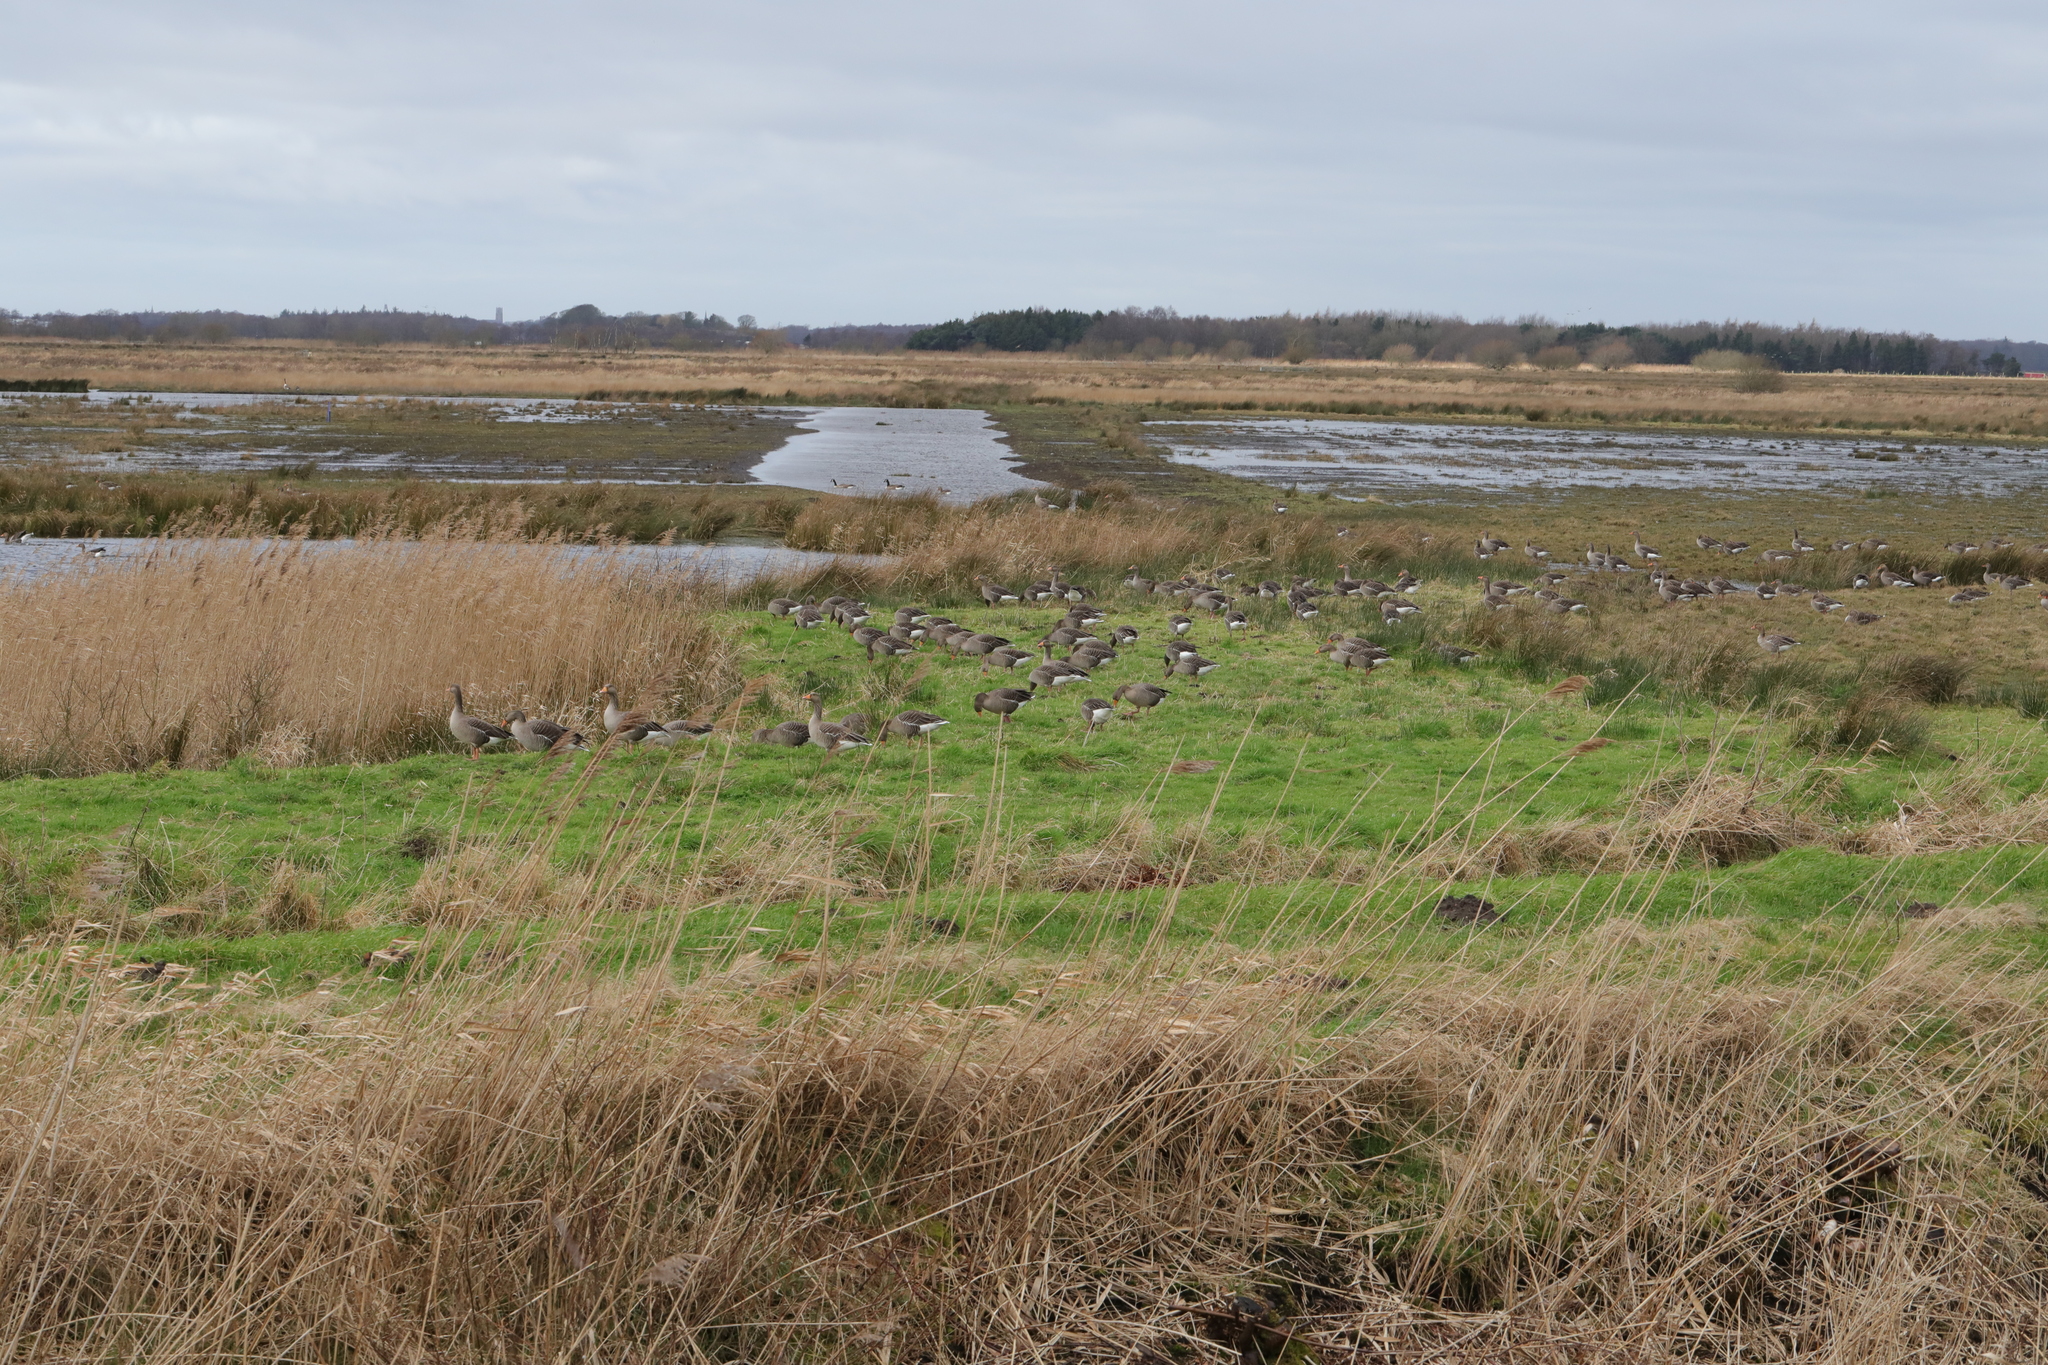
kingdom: Animalia
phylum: Chordata
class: Aves
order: Anseriformes
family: Anatidae
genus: Anser
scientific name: Anser anser
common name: Greylag goose
